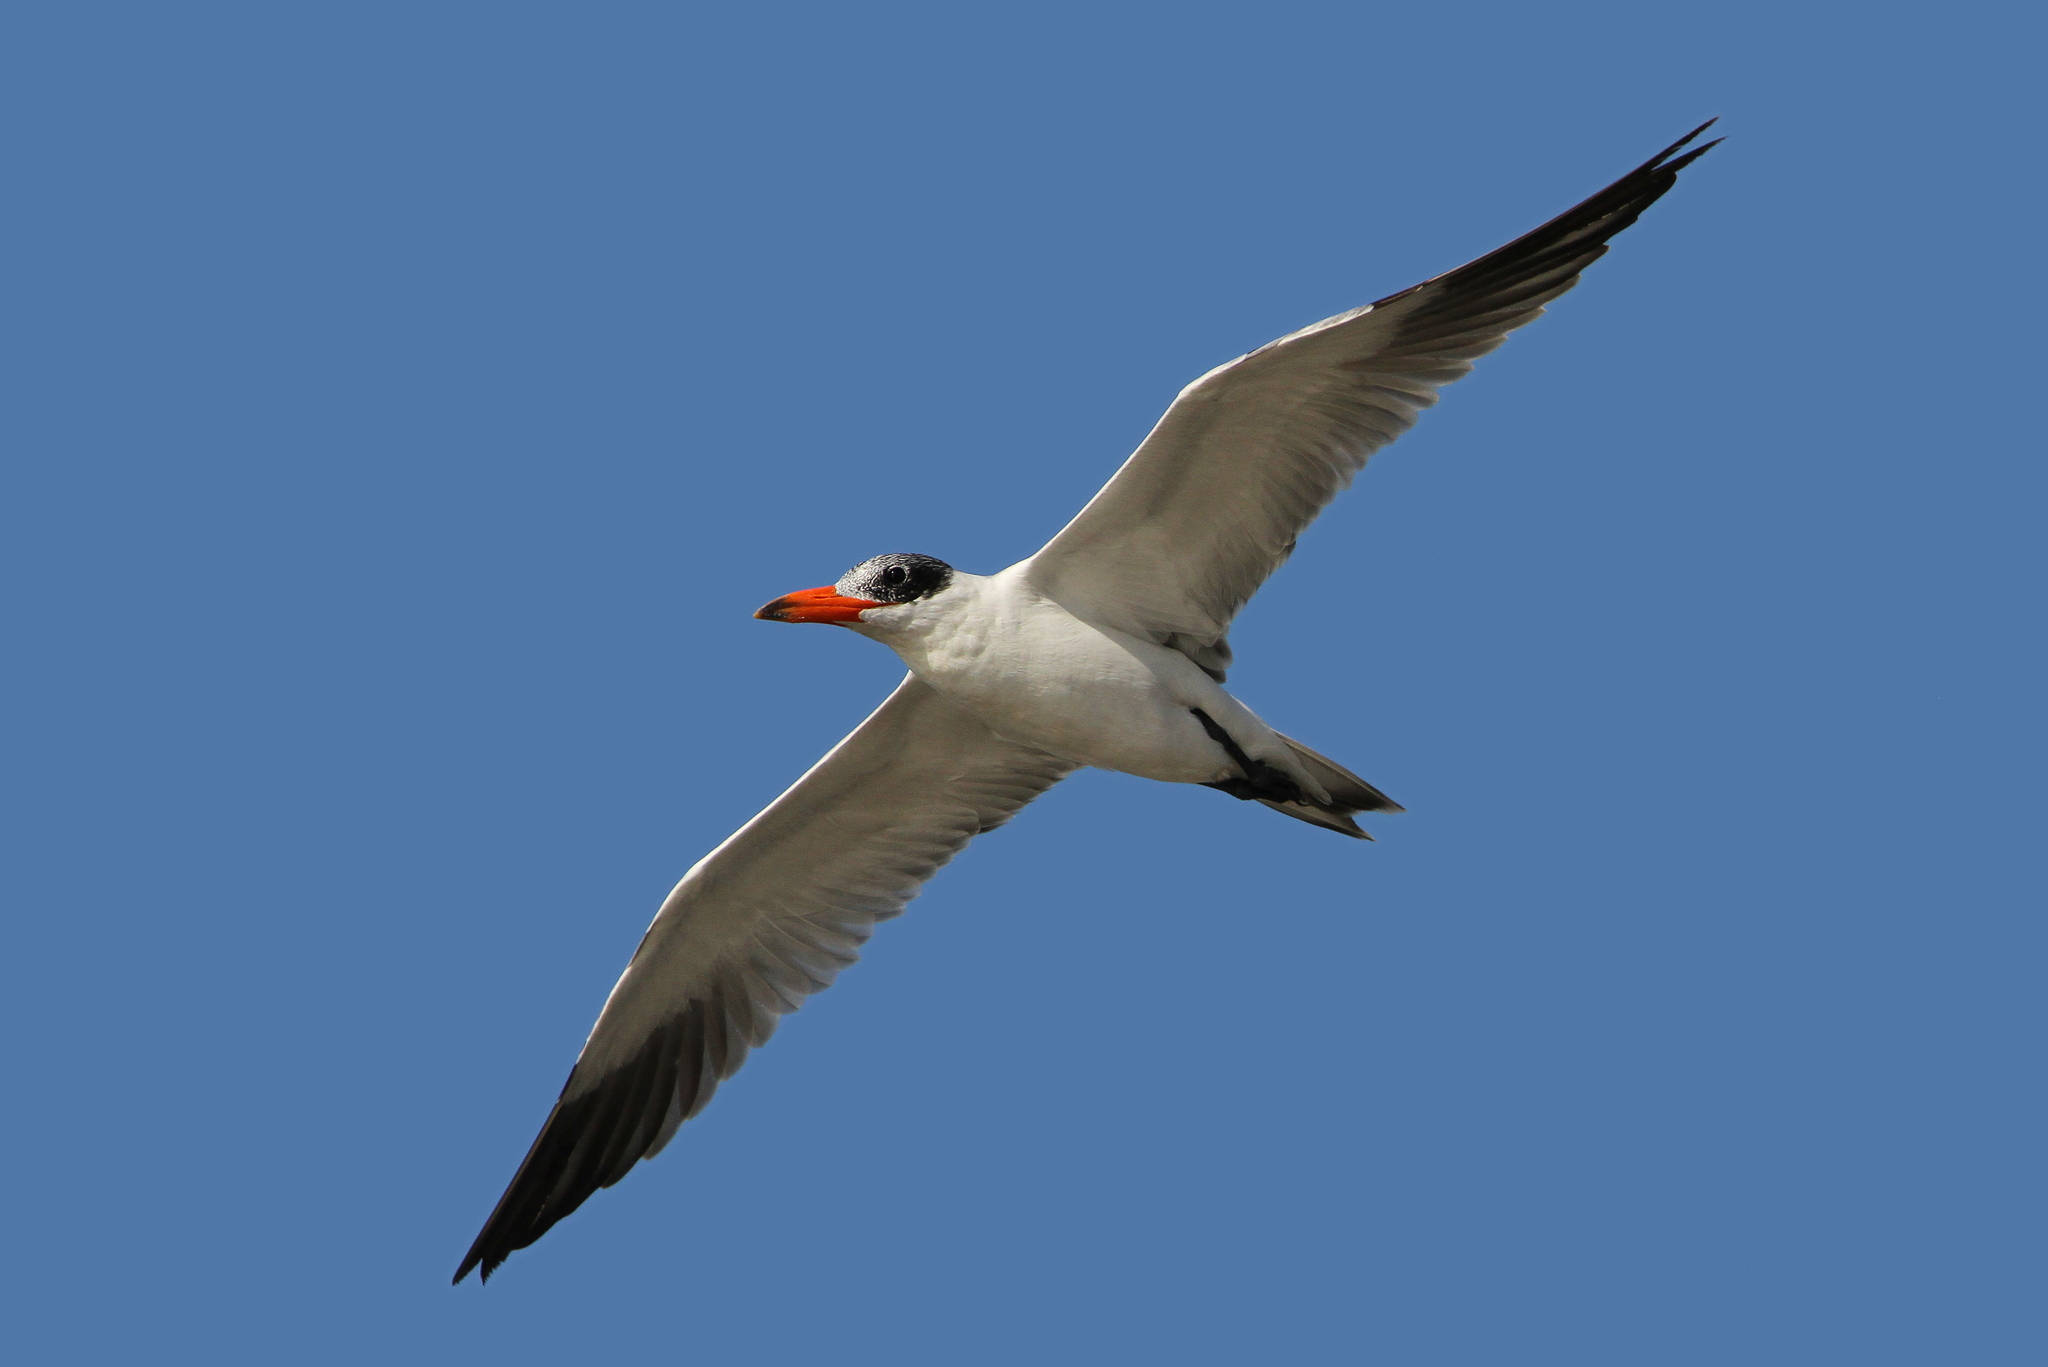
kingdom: Animalia
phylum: Chordata
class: Aves
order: Charadriiformes
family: Laridae
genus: Hydroprogne
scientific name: Hydroprogne caspia
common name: Caspian tern
